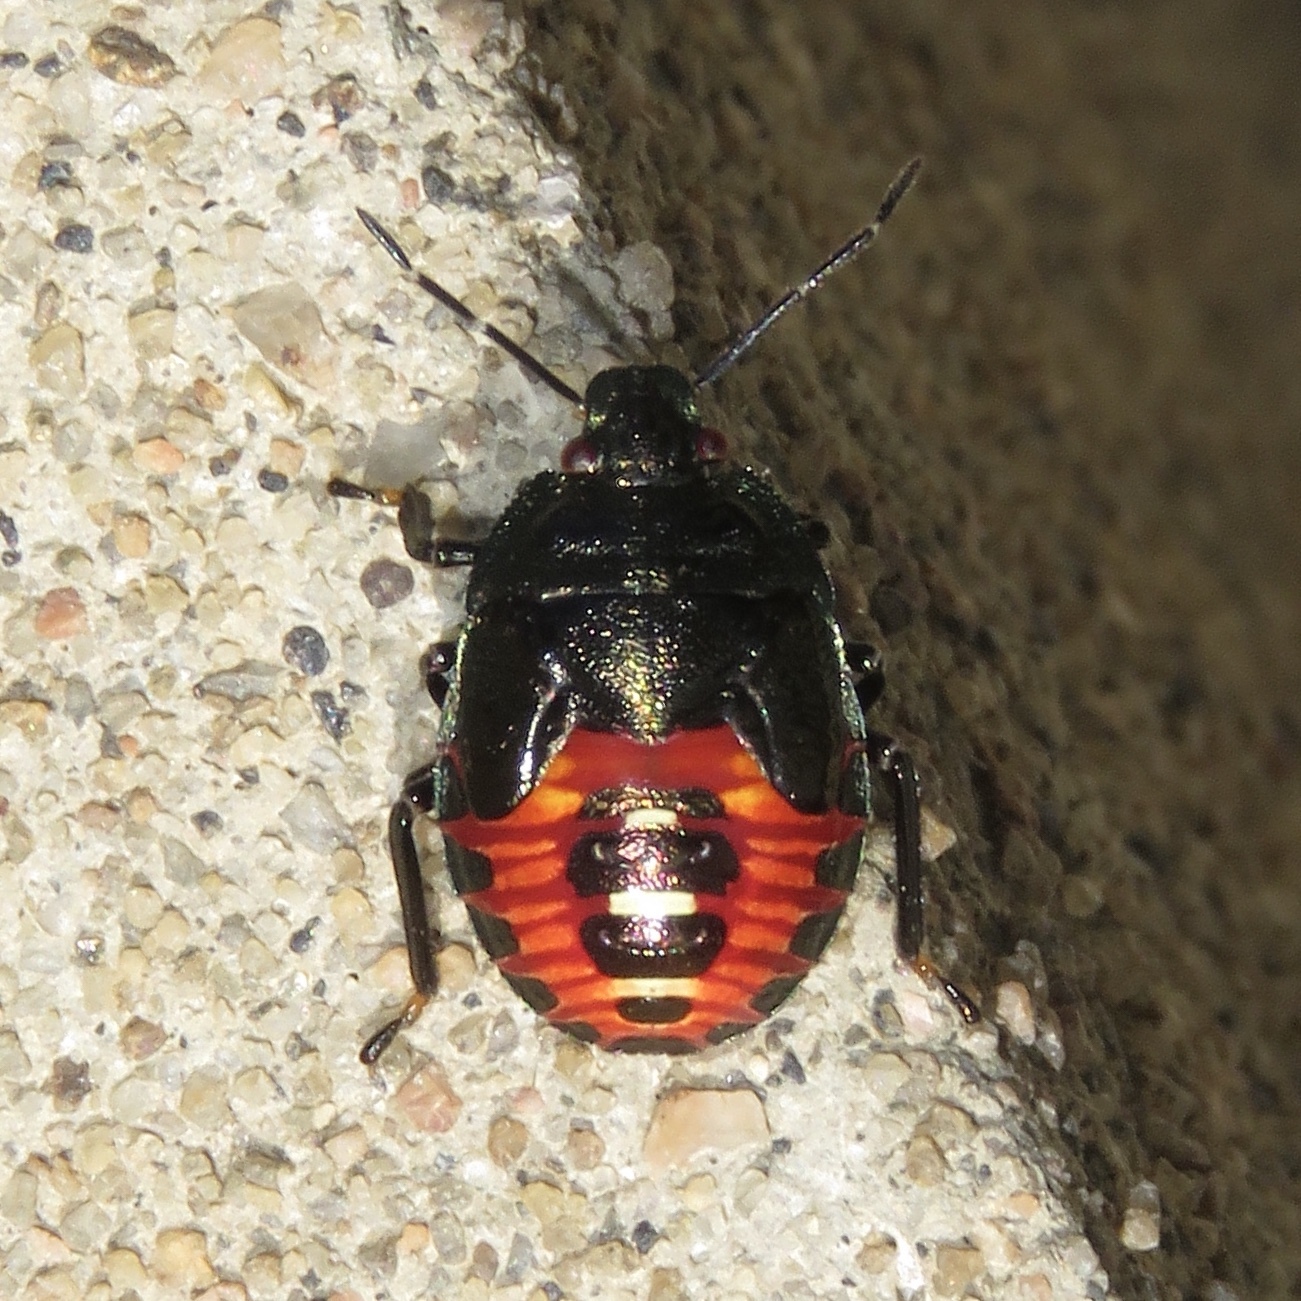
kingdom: Animalia
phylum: Arthropoda
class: Insecta
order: Hemiptera
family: Pentatomidae
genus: Perillus
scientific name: Perillus bioculatus
